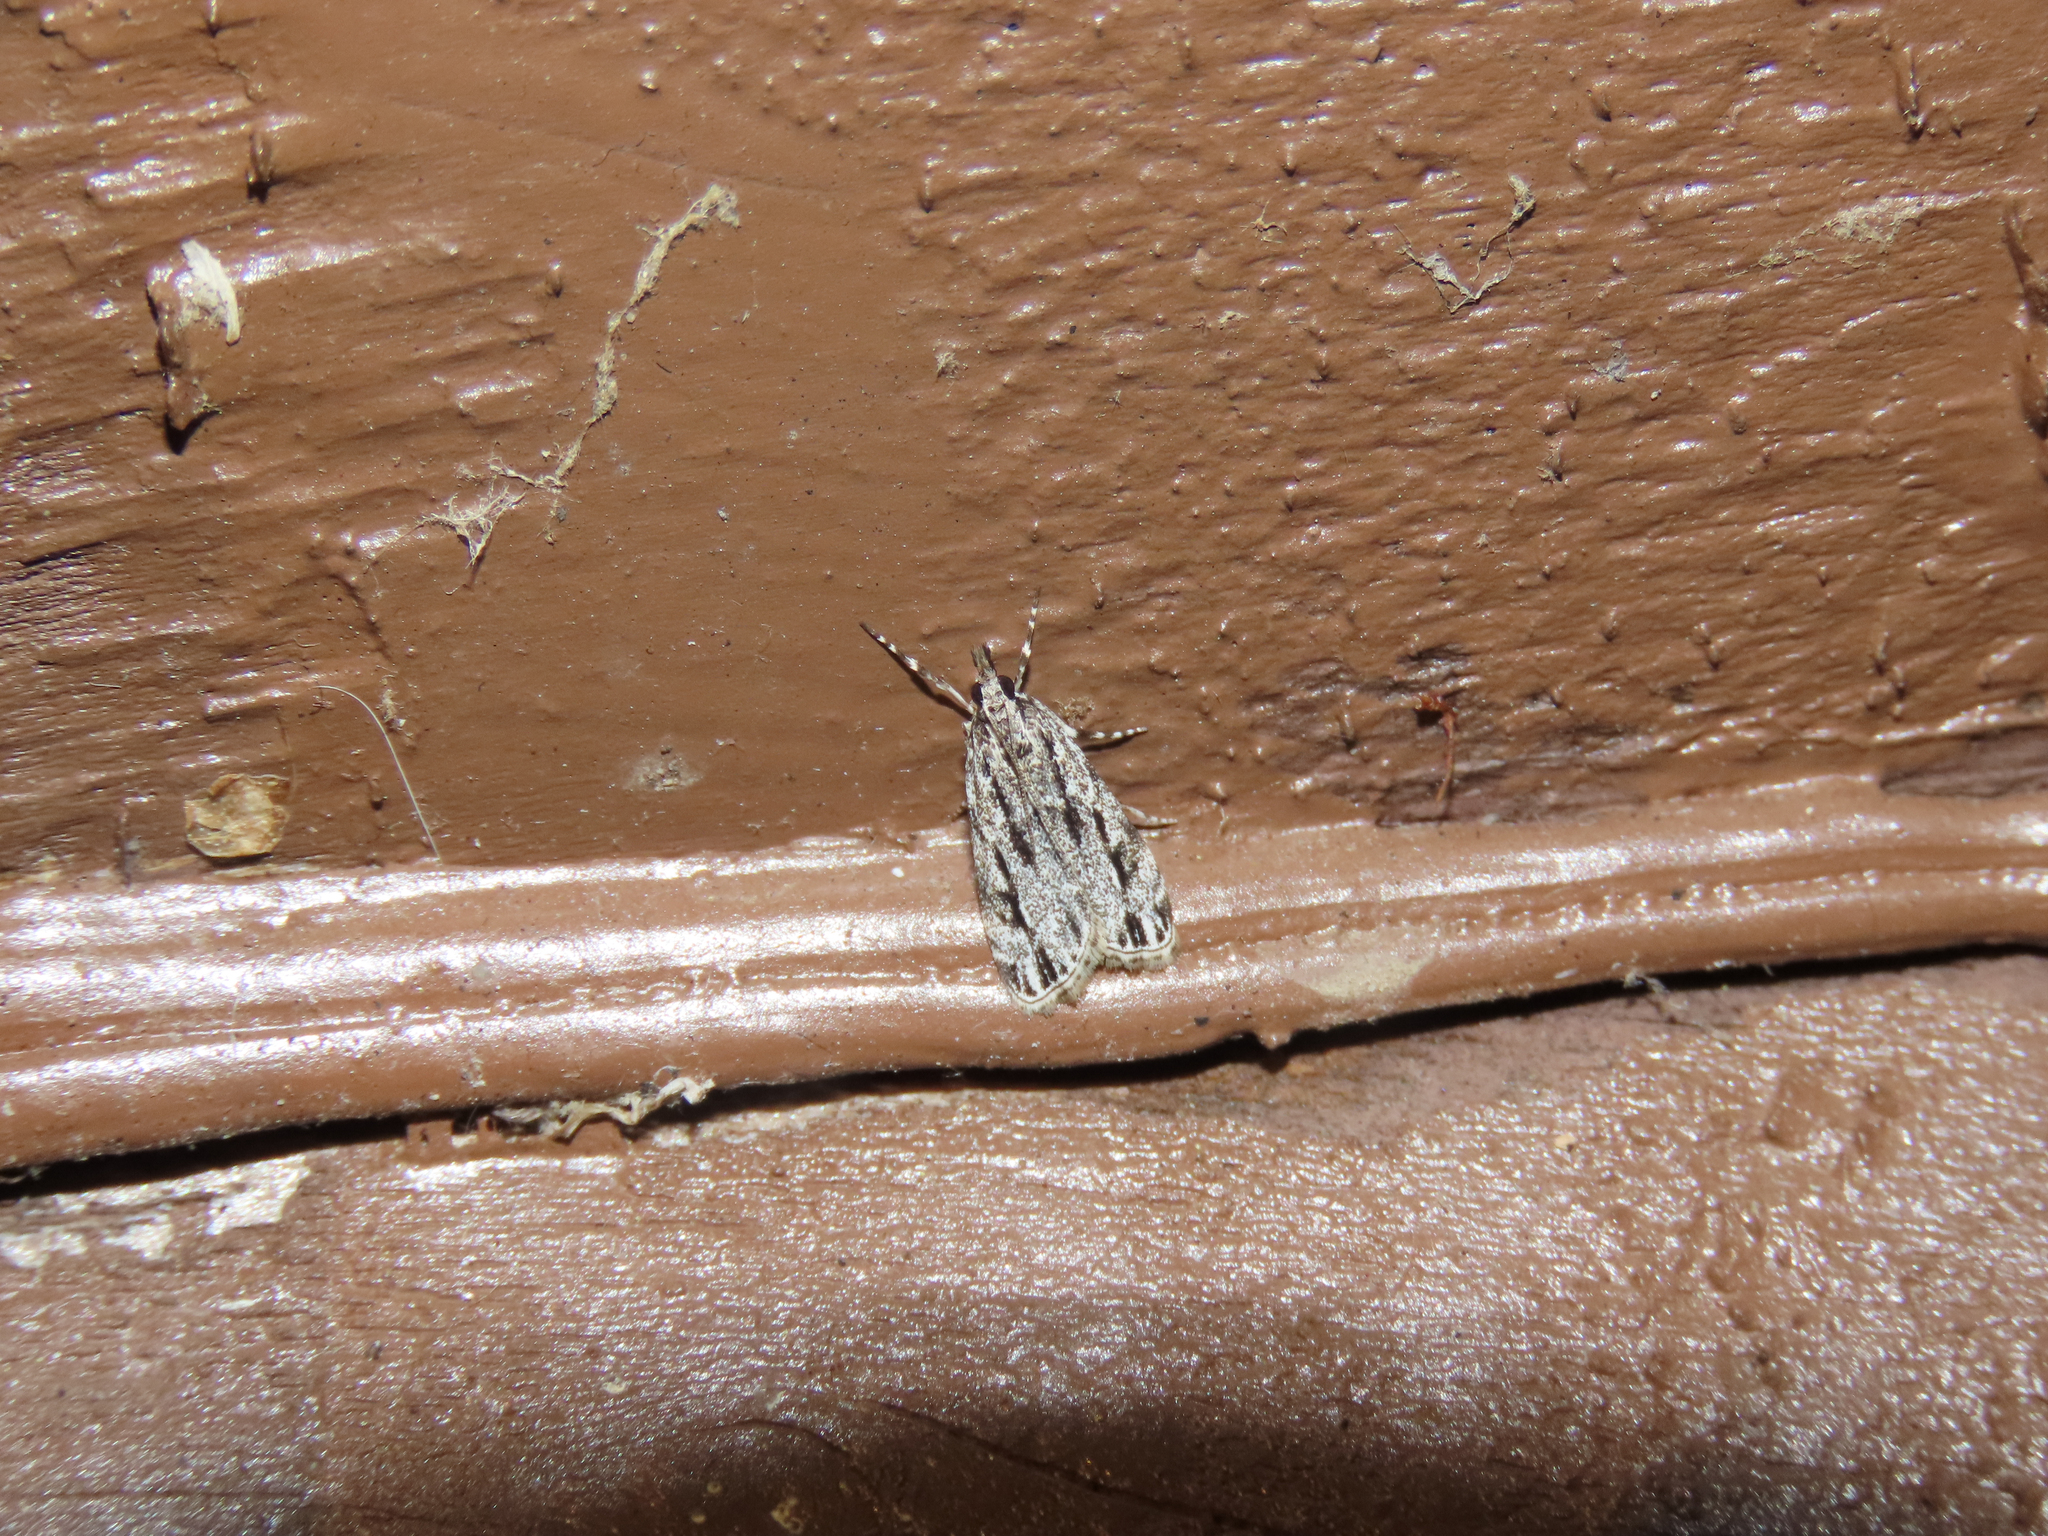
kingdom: Animalia
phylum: Arthropoda
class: Insecta
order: Lepidoptera
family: Crambidae
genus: Eudonia
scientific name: Eudonia strigalis
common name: Striped eudonia moth
